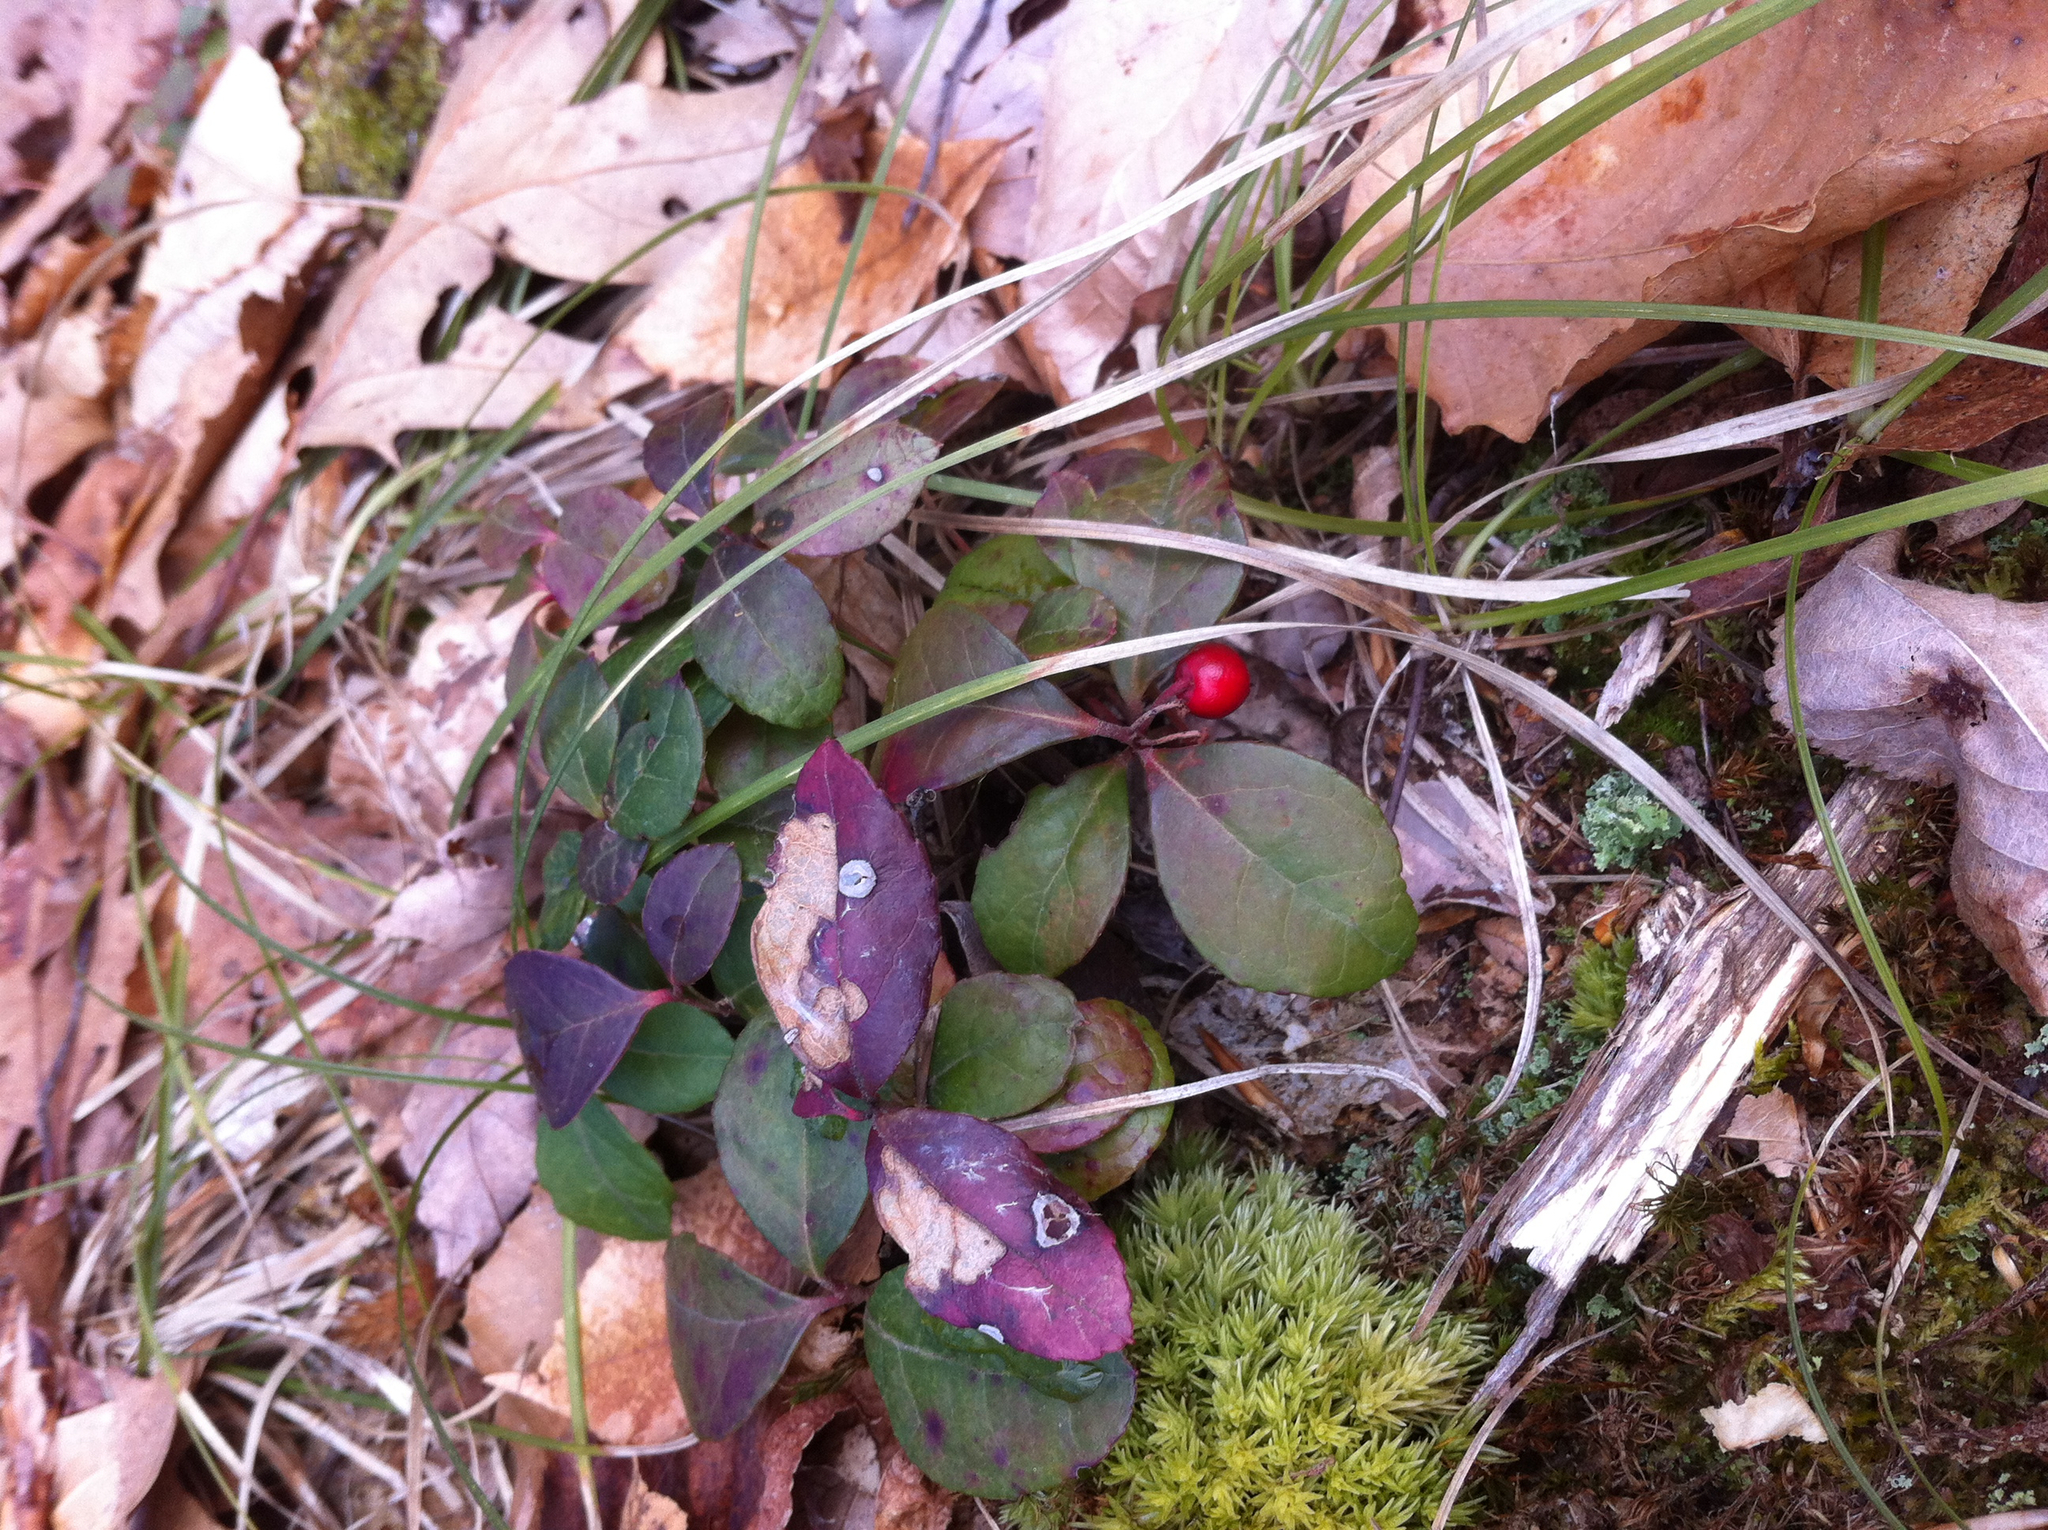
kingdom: Plantae
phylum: Tracheophyta
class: Magnoliopsida
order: Ericales
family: Ericaceae
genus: Gaultheria
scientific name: Gaultheria procumbens
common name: Checkerberry
